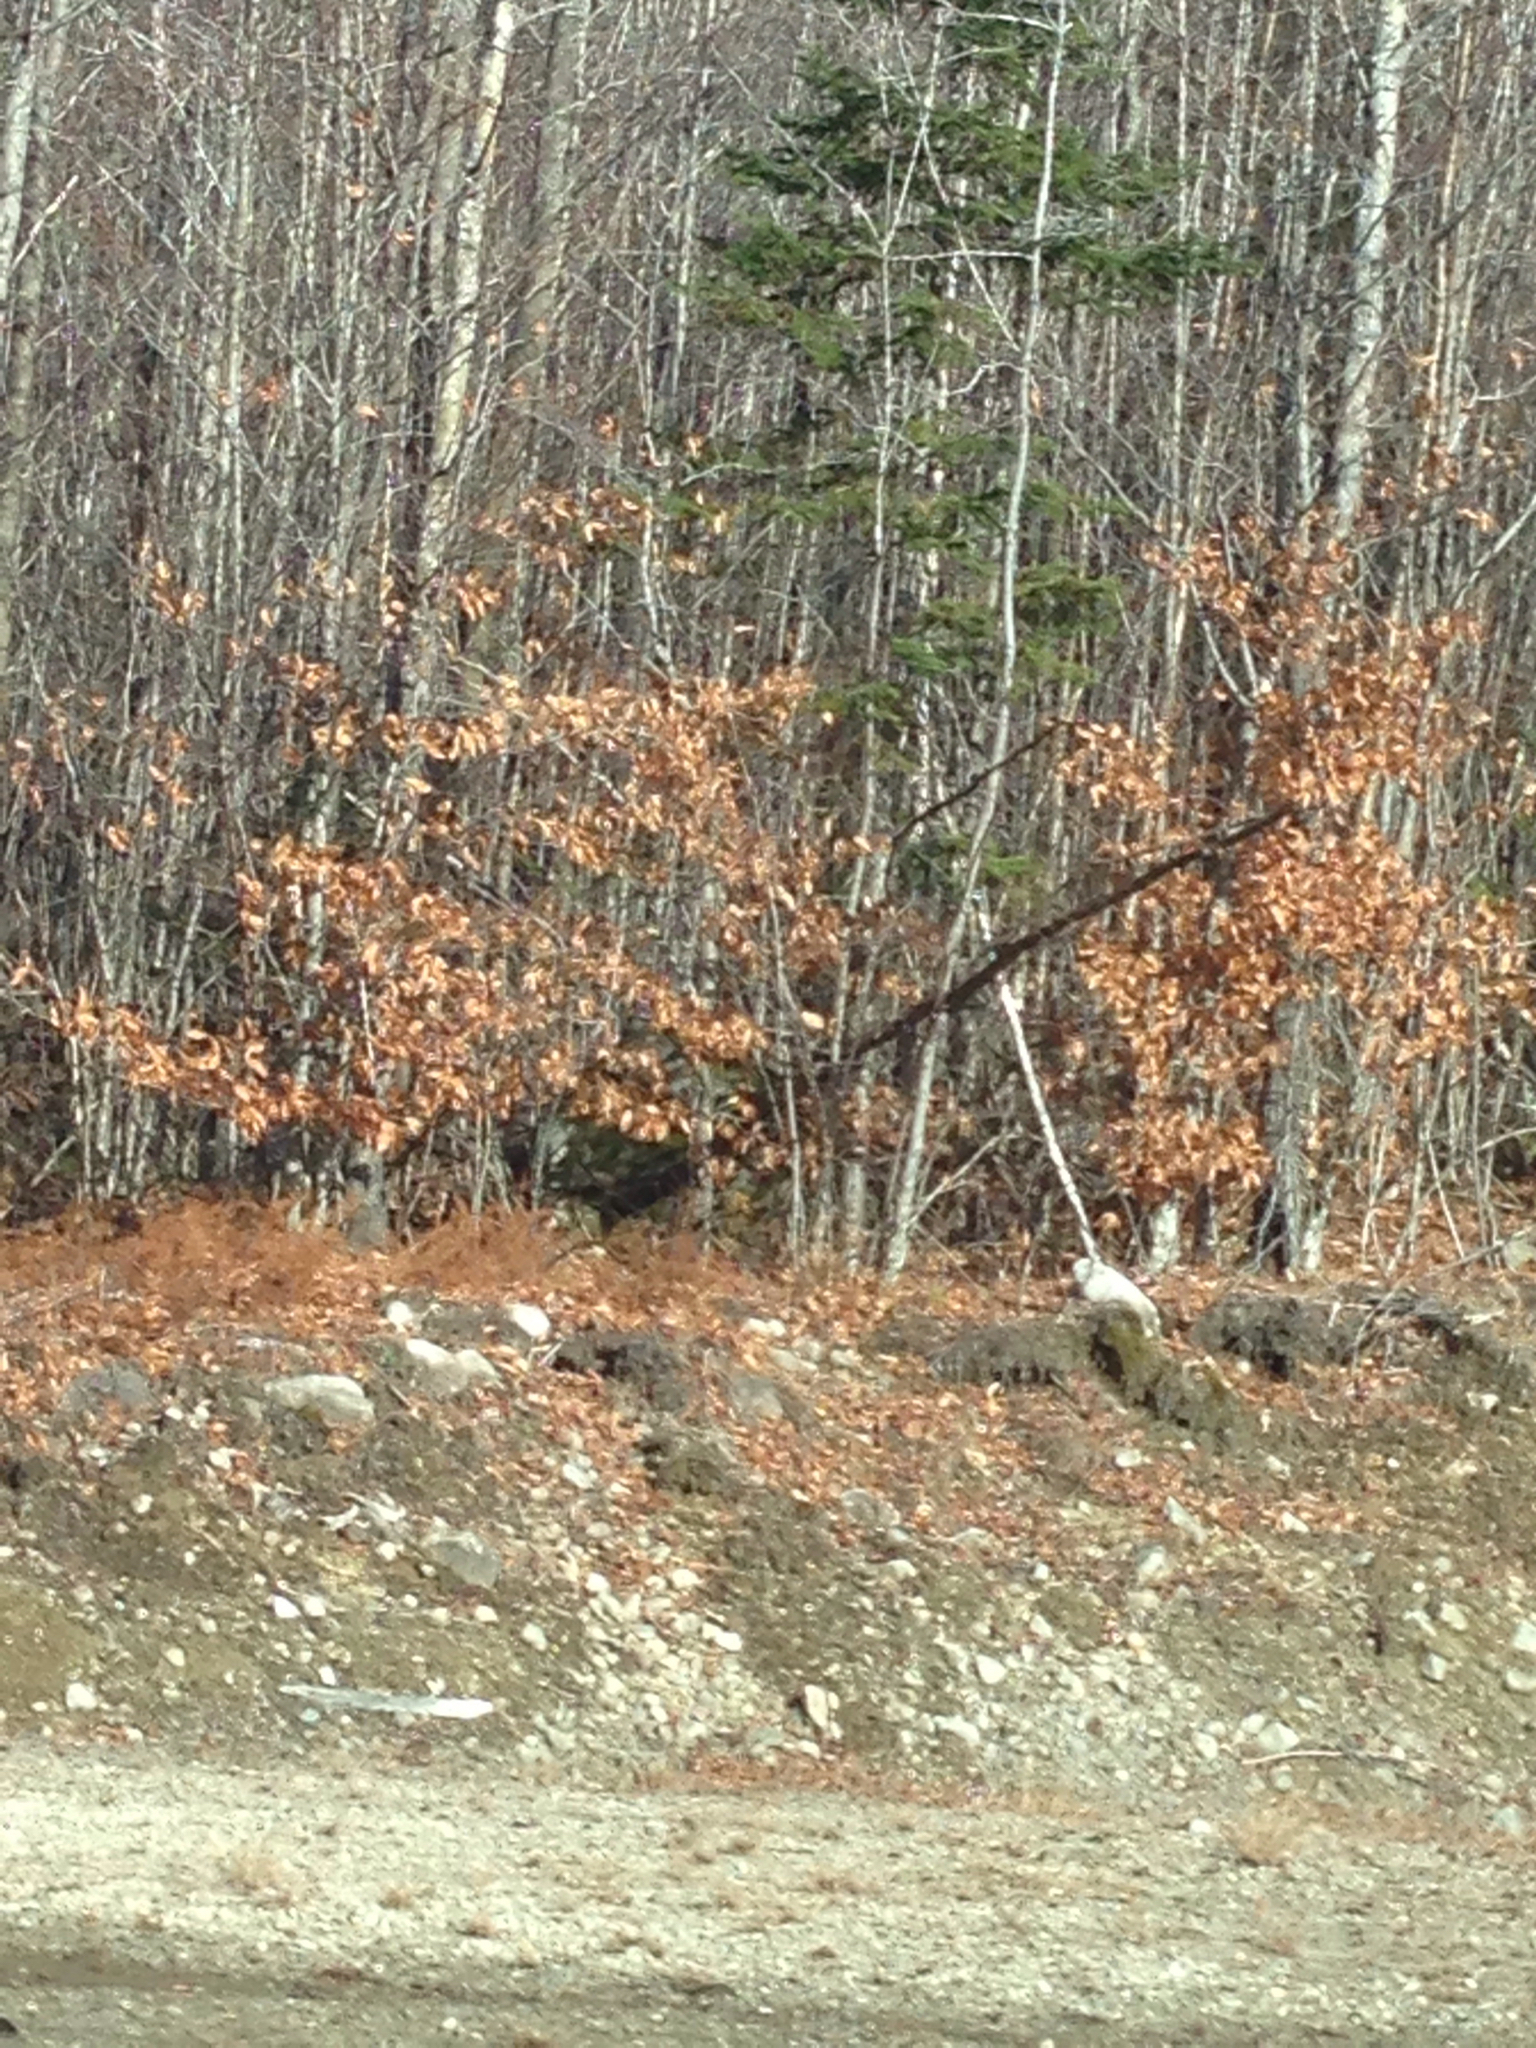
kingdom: Plantae
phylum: Tracheophyta
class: Magnoliopsida
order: Fagales
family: Fagaceae
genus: Fagus
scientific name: Fagus grandifolia
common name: American beech
